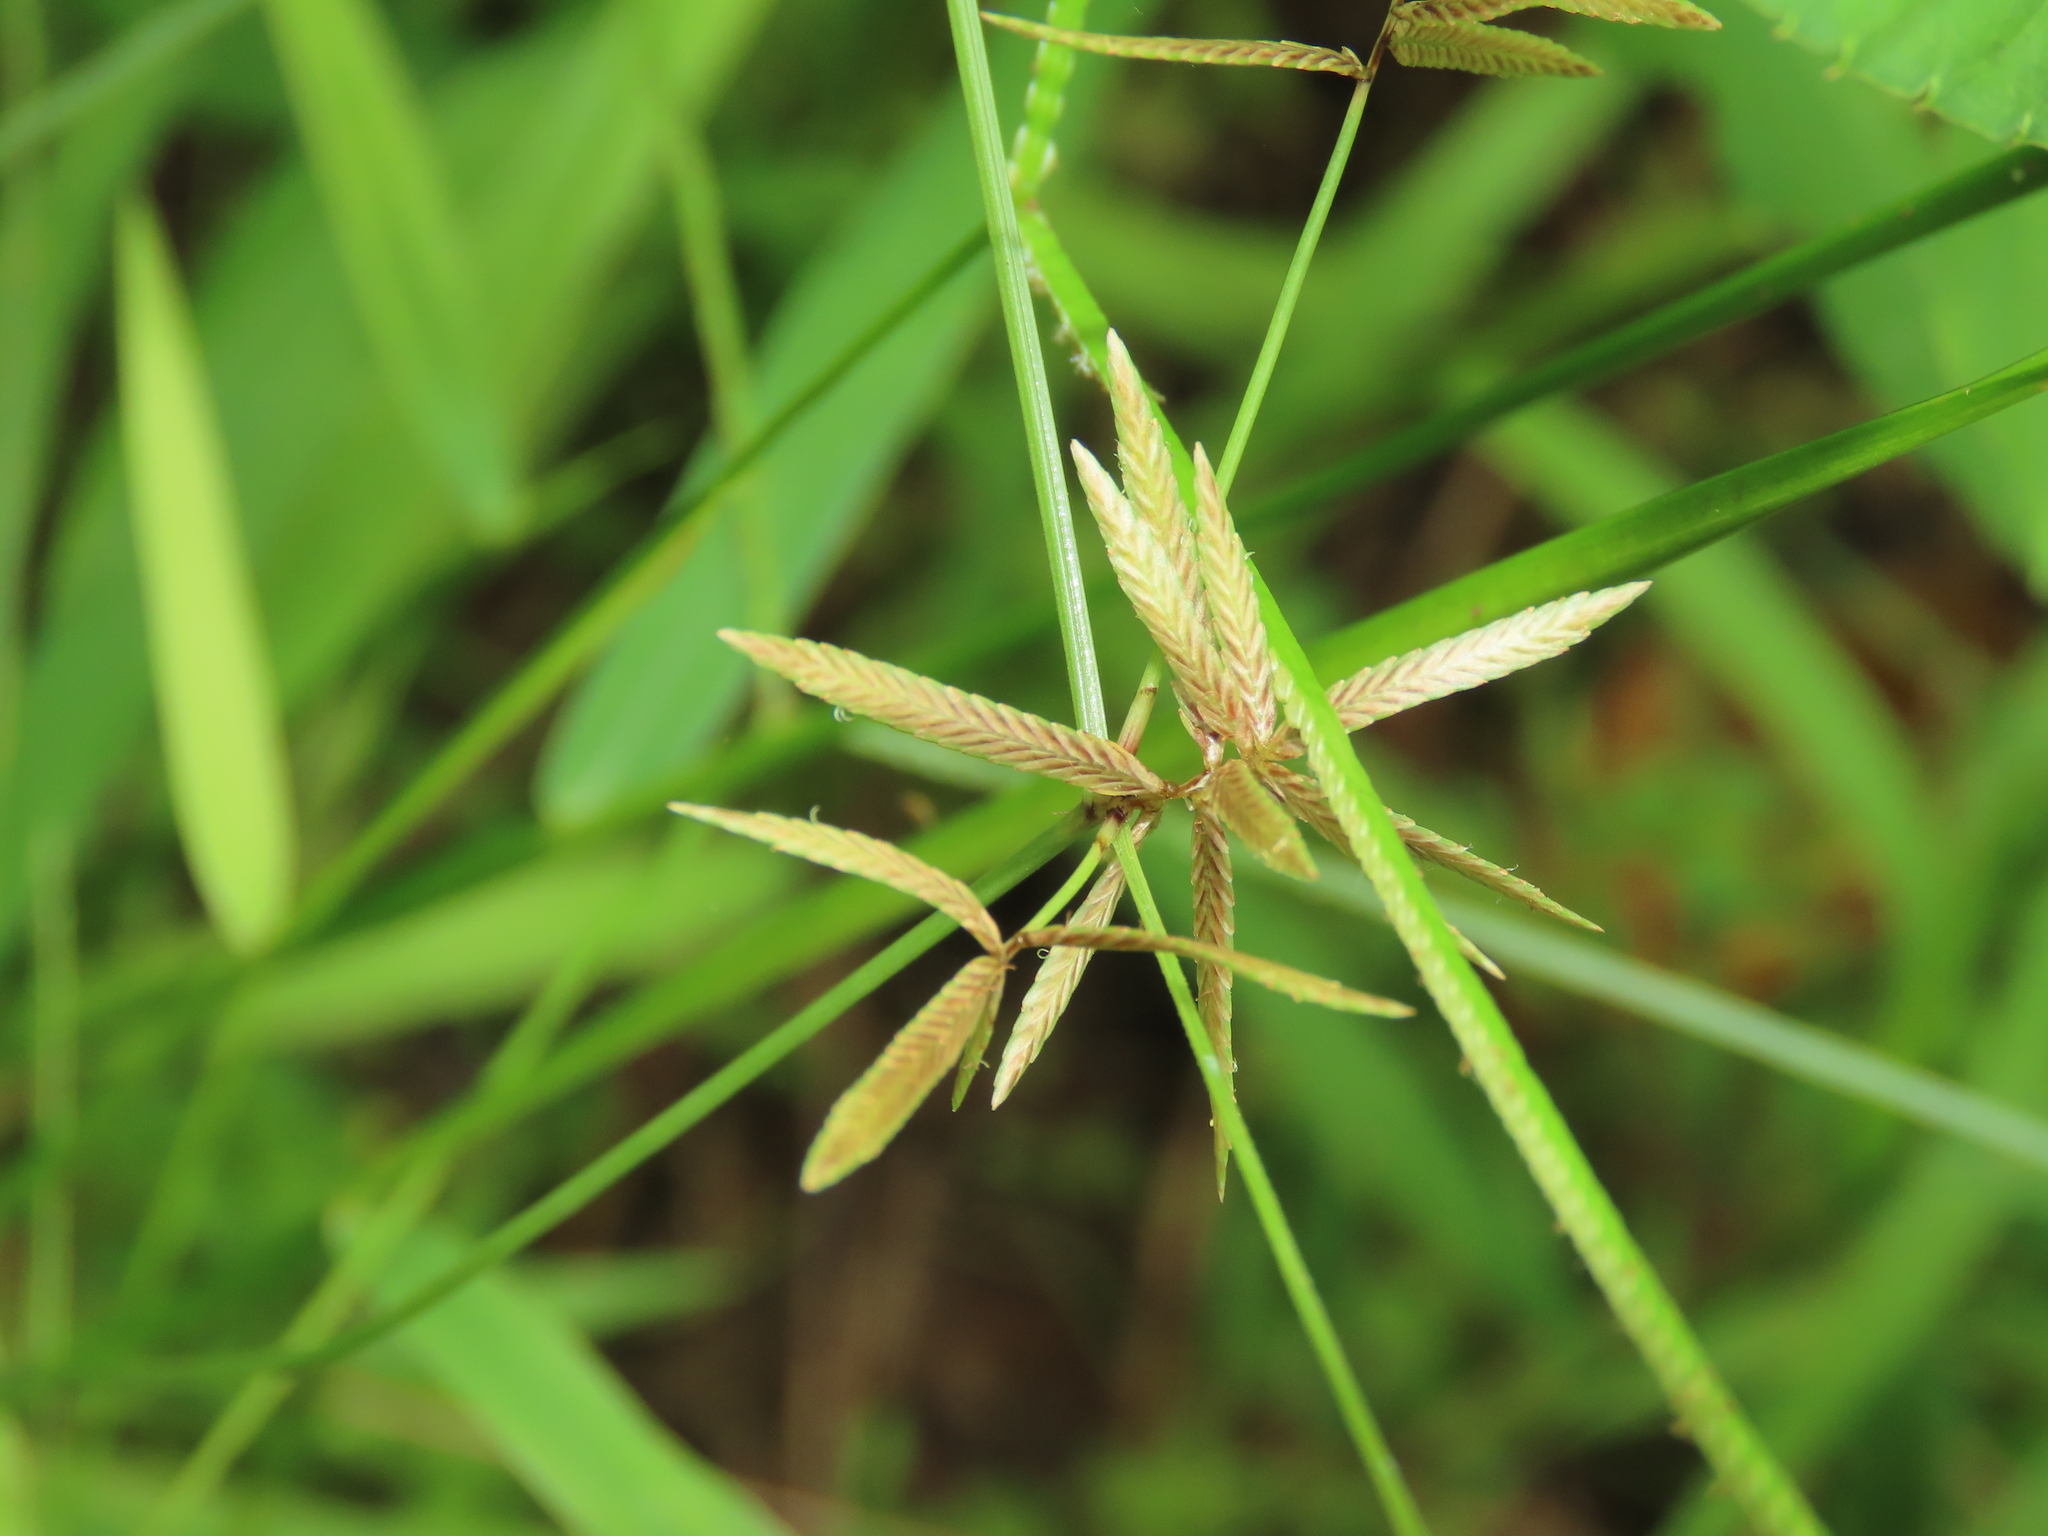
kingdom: Plantae
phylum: Tracheophyta
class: Liliopsida
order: Poales
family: Cyperaceae
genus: Cyperus
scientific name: Cyperus flavidus
